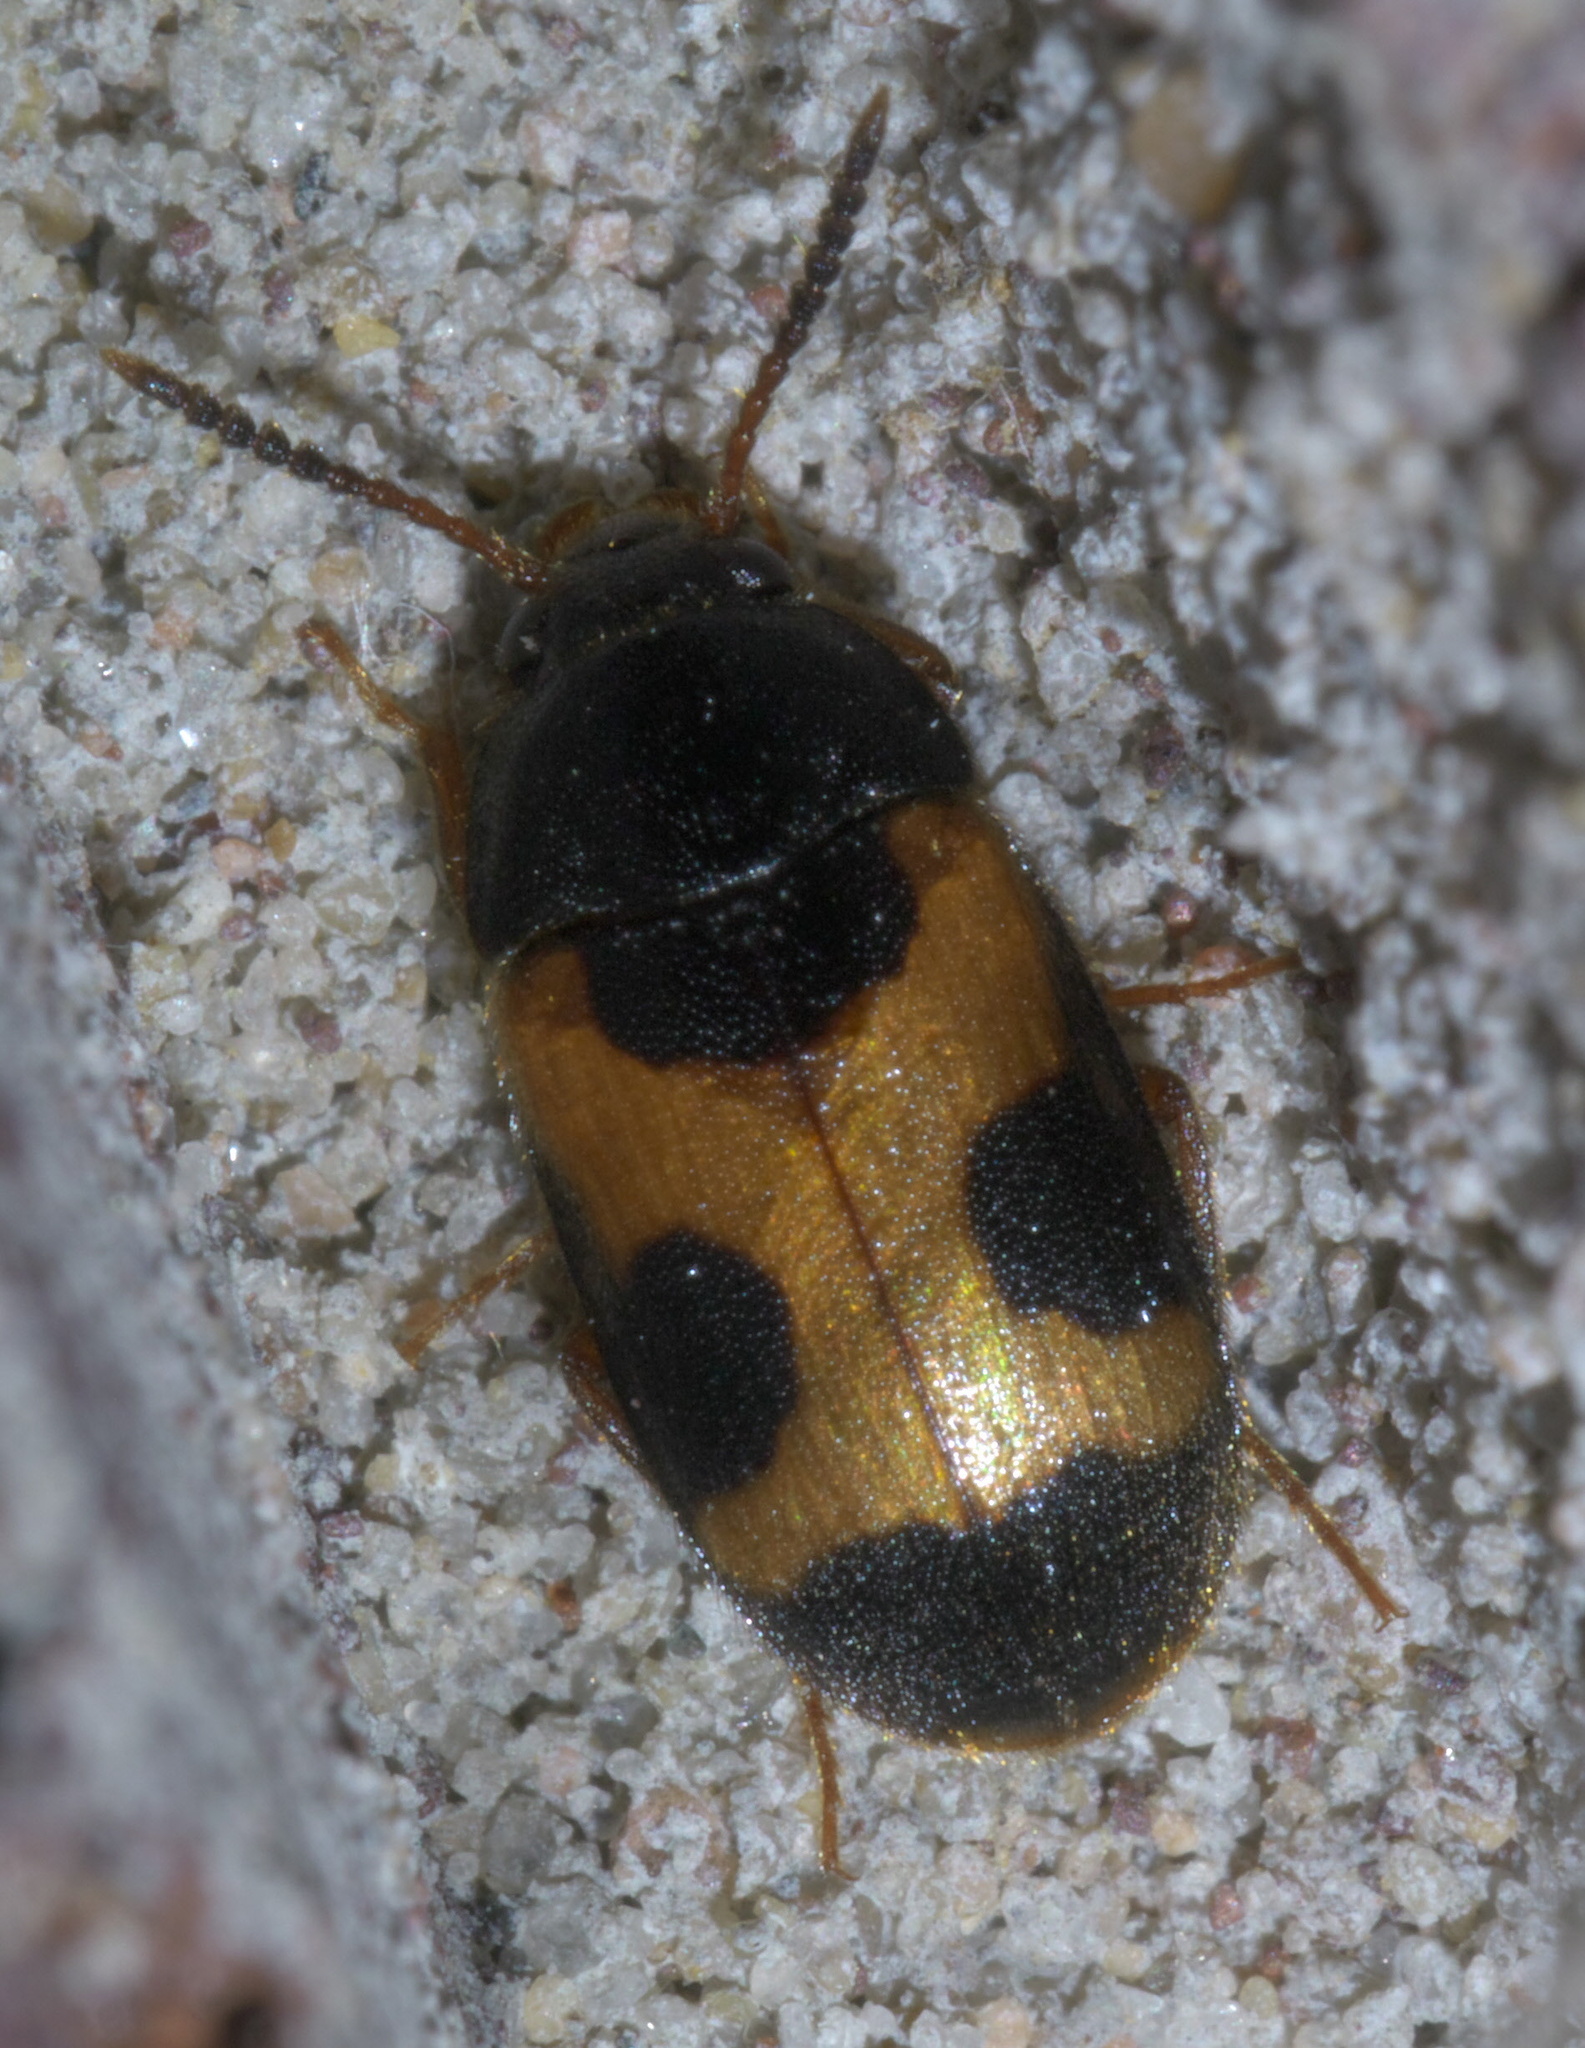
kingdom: Animalia
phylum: Arthropoda
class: Insecta
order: Coleoptera
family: Mycetophagidae
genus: Mycetophagus
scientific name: Mycetophagus punctatus
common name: Hairy fungus beetle
